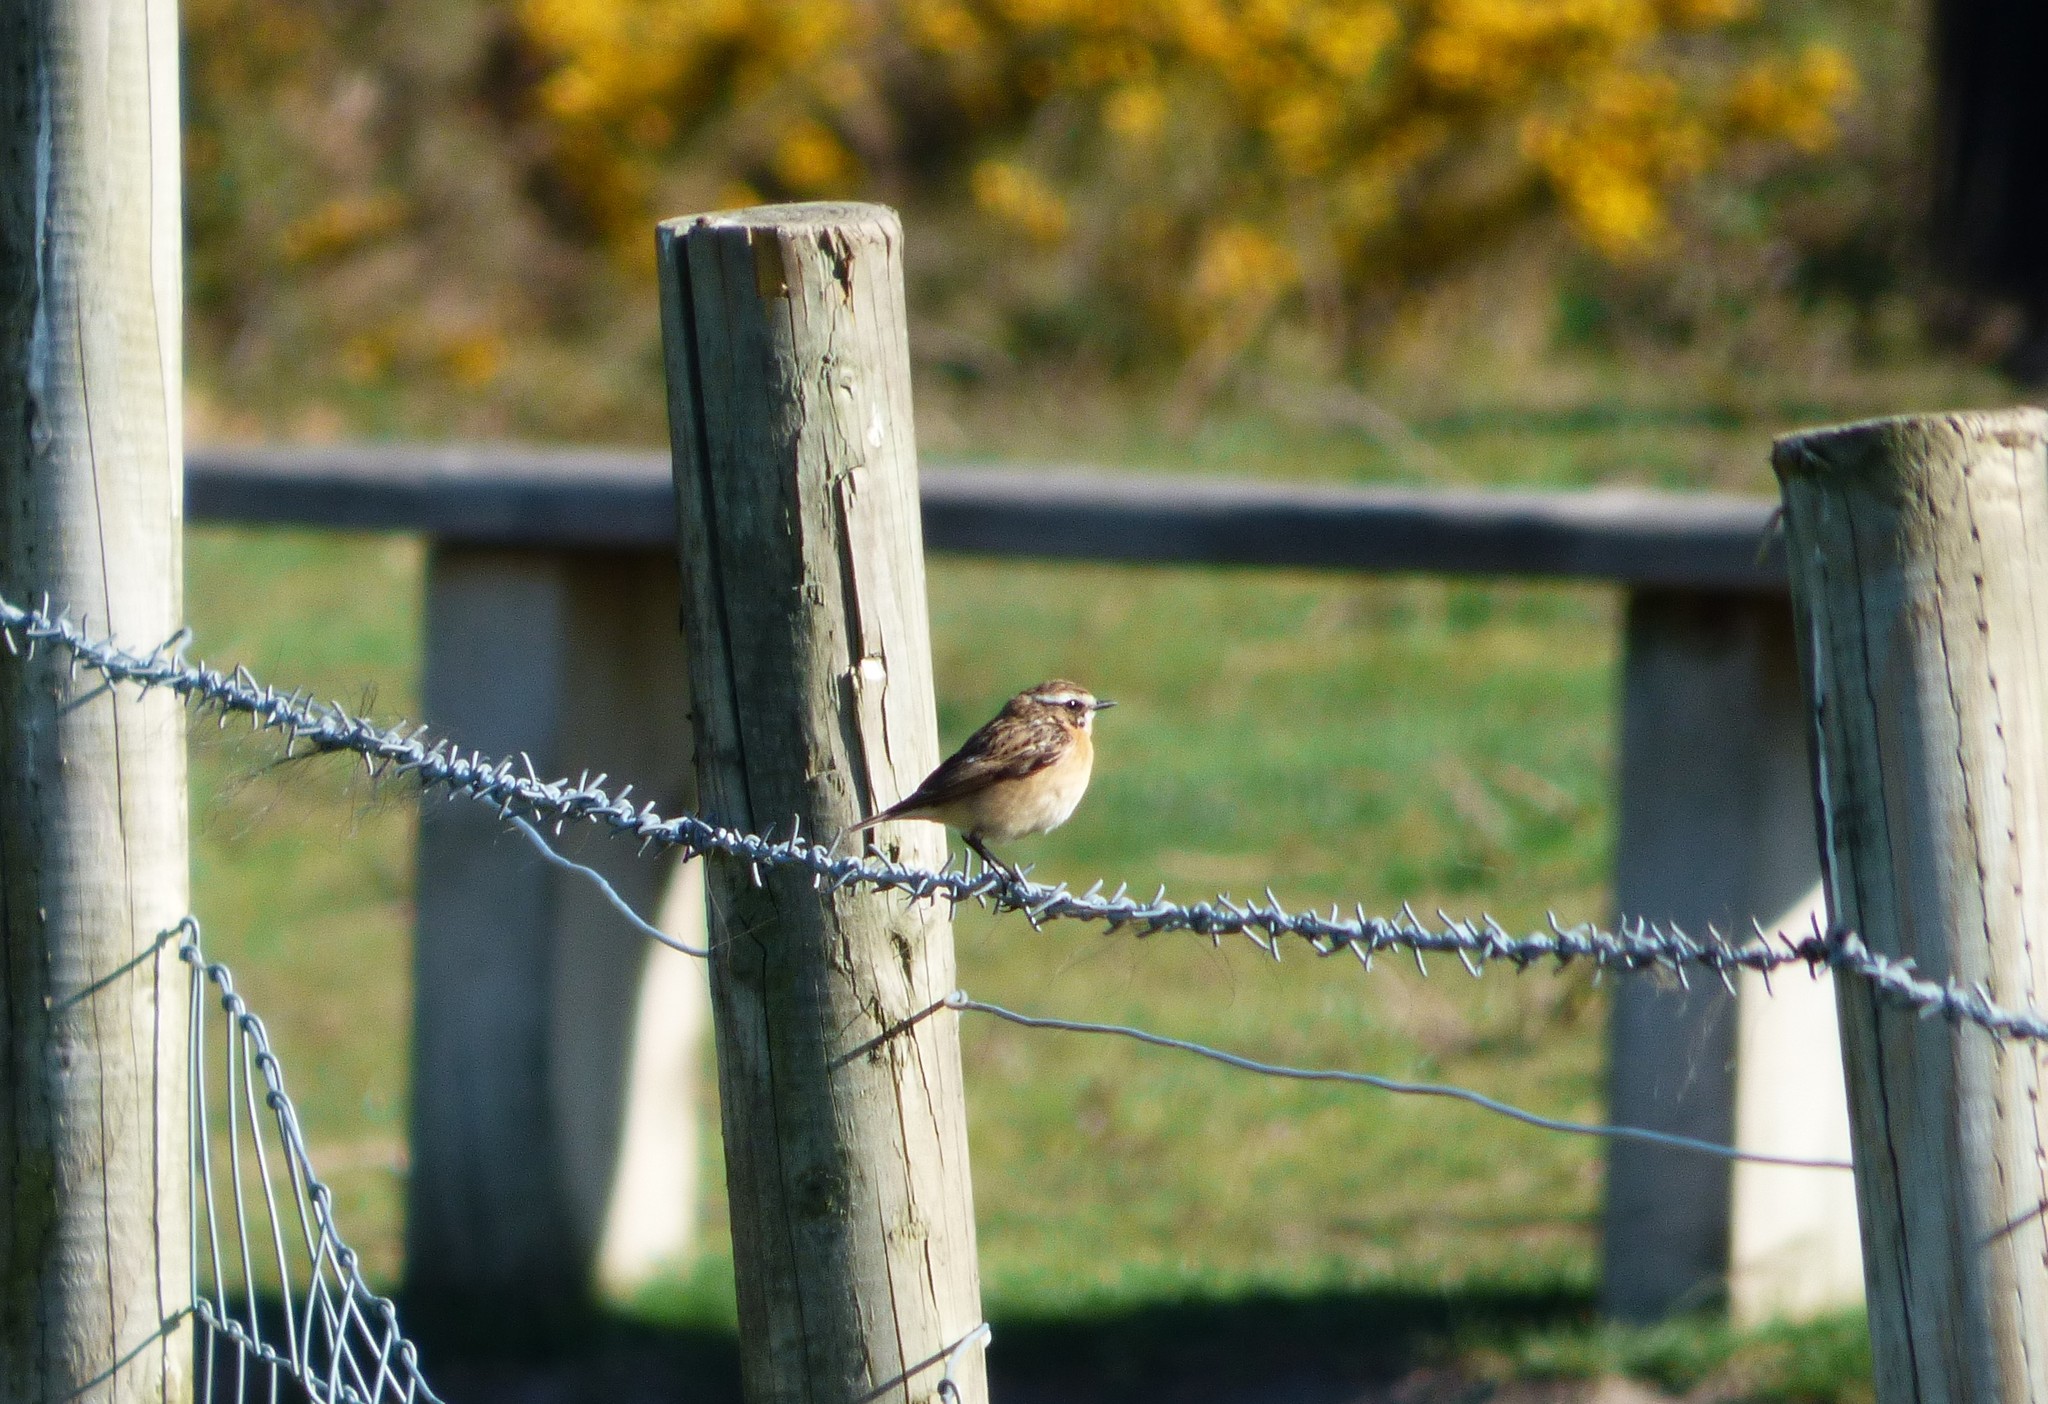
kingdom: Animalia
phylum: Chordata
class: Aves
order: Passeriformes
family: Muscicapidae
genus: Saxicola
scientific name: Saxicola rubetra
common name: Whinchat
